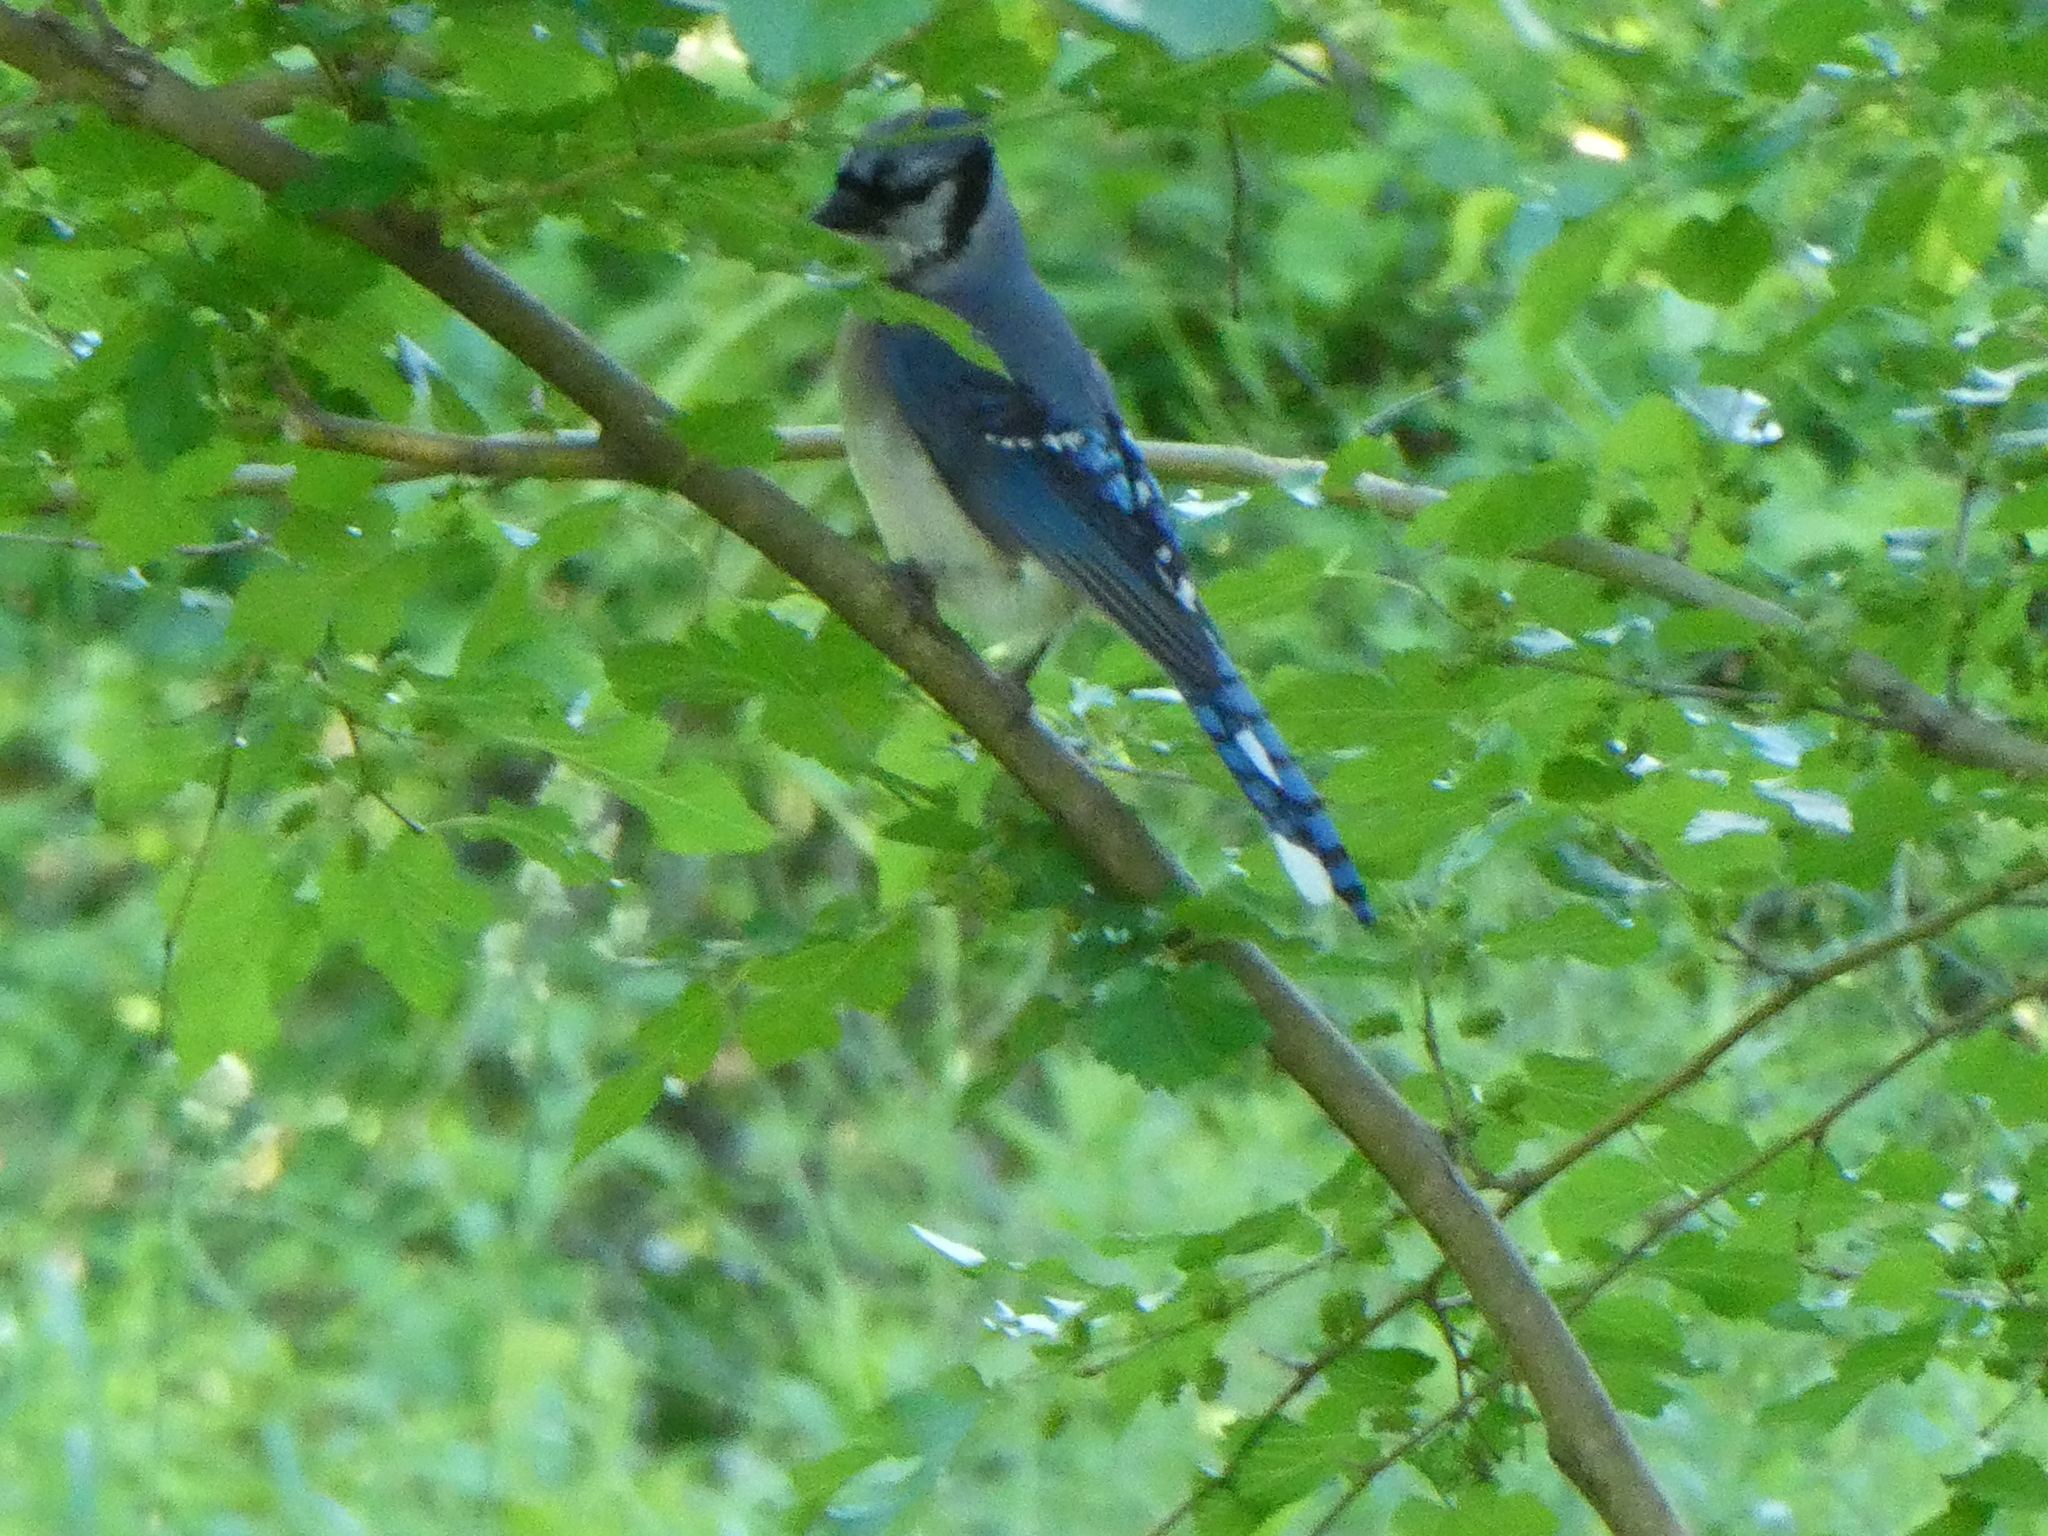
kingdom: Animalia
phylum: Chordata
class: Aves
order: Passeriformes
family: Corvidae
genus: Cyanocitta
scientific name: Cyanocitta cristata
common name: Blue jay
